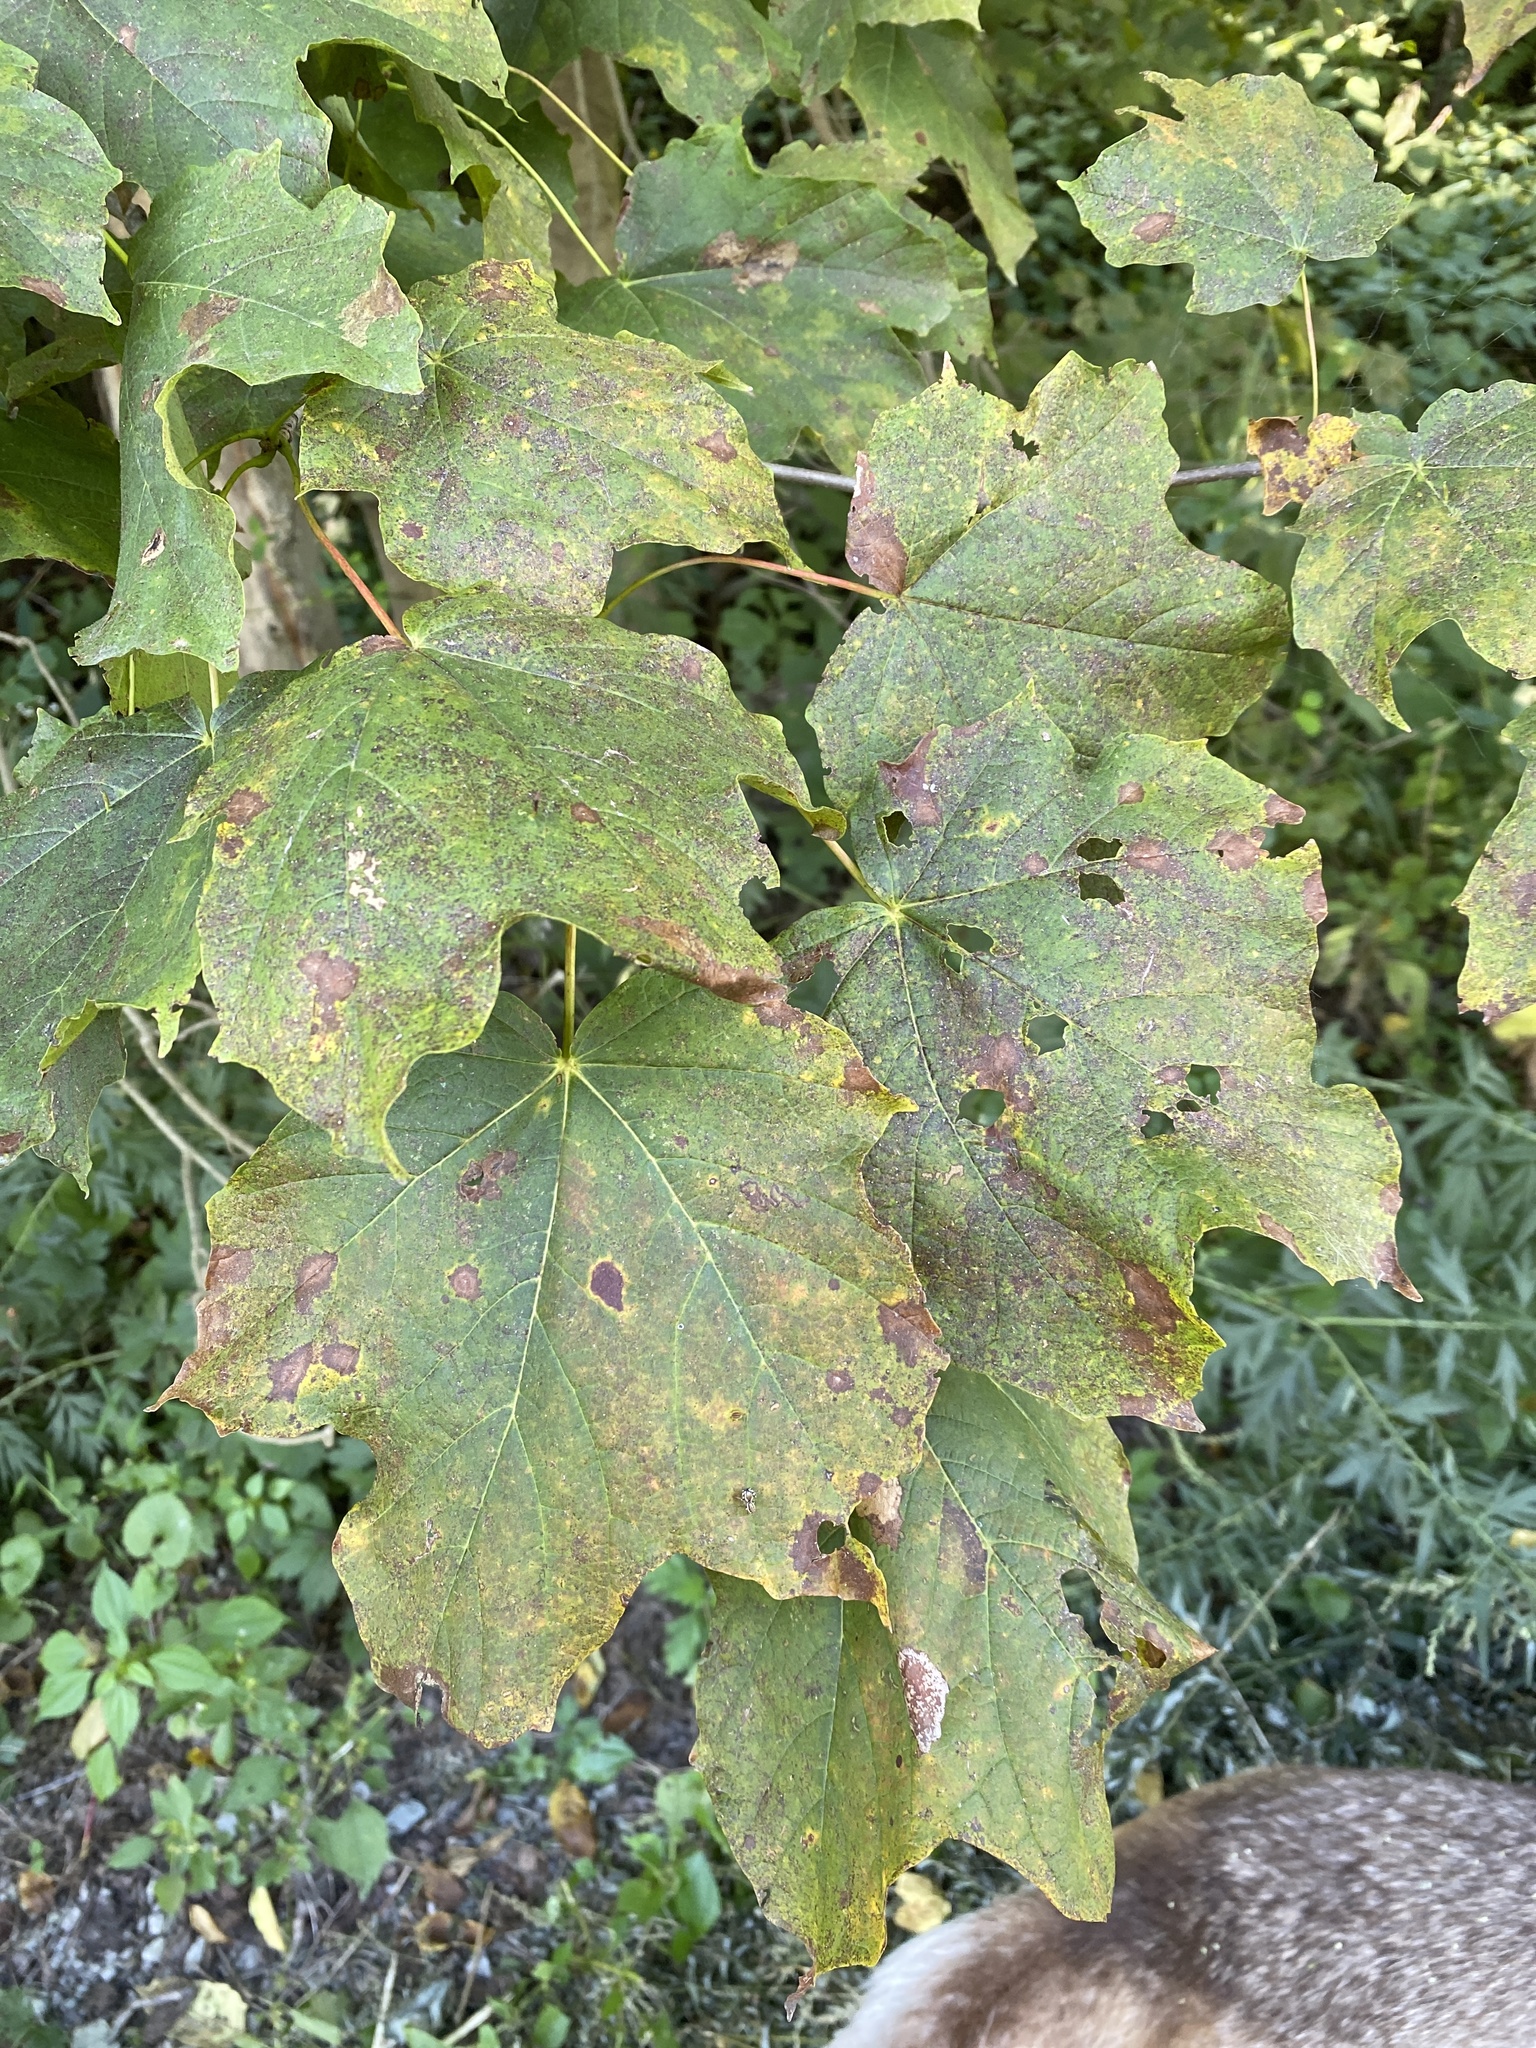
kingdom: Plantae
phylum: Tracheophyta
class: Magnoliopsida
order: Sapindales
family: Sapindaceae
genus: Acer
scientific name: Acer nigrum
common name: Black maple
